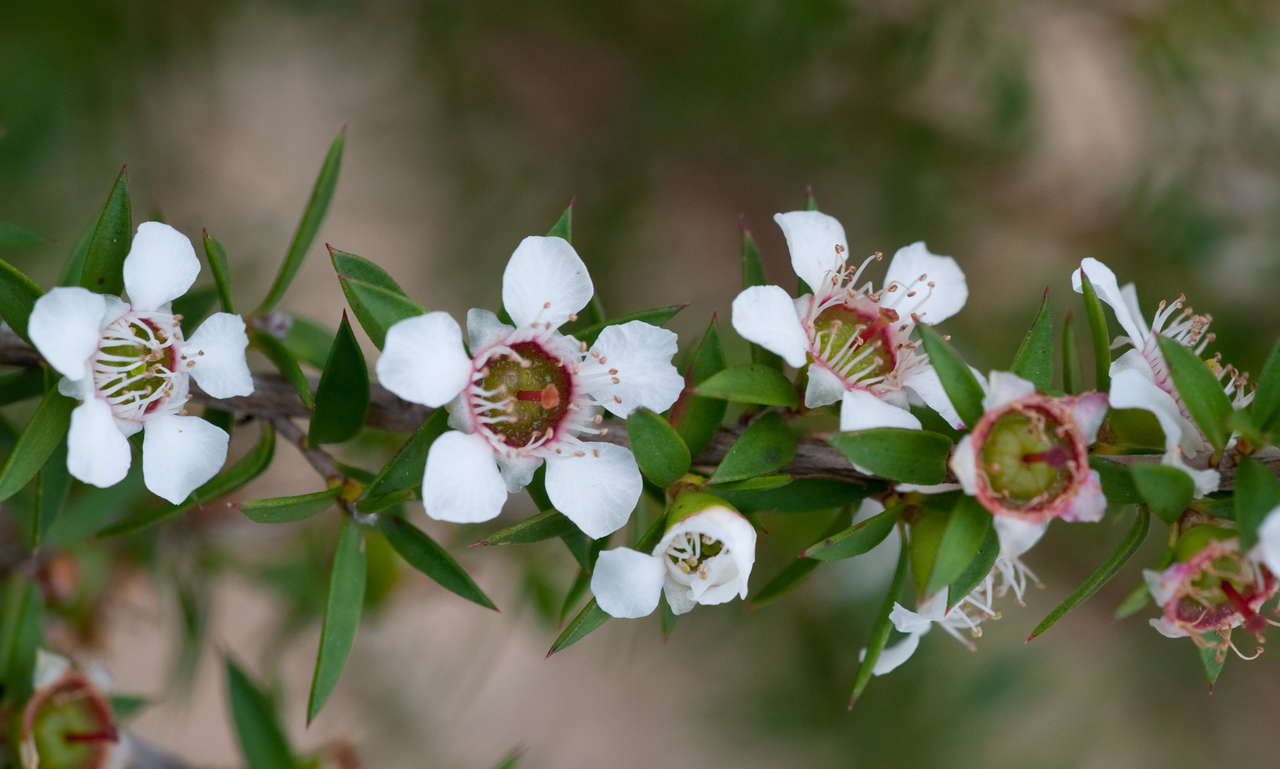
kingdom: Plantae
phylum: Tracheophyta
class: Magnoliopsida
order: Myrtales
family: Myrtaceae
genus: Leptospermum
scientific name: Leptospermum continentale
